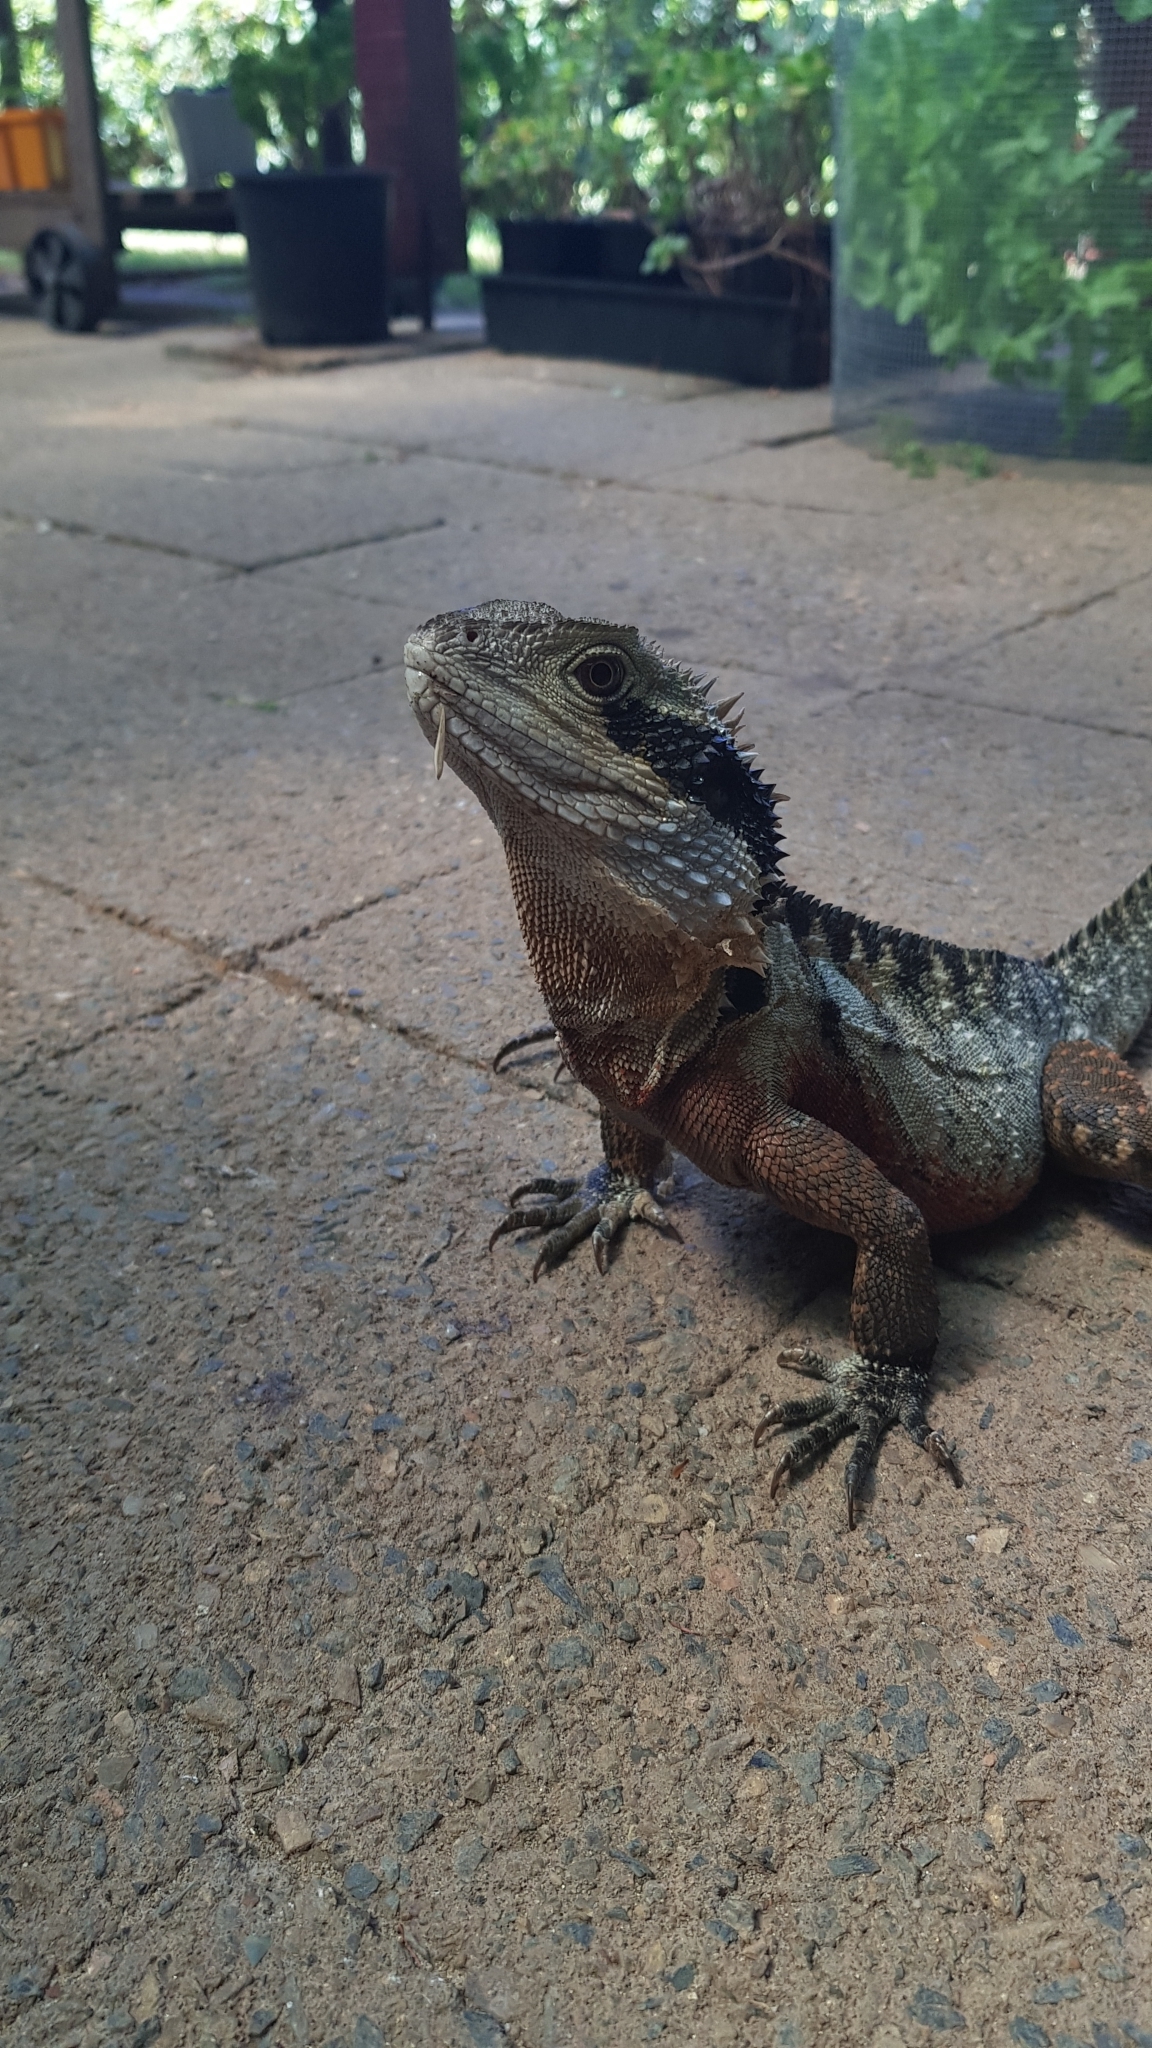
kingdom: Animalia
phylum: Chordata
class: Squamata
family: Agamidae
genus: Intellagama
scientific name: Intellagama lesueurii
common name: Eastern water dragon
